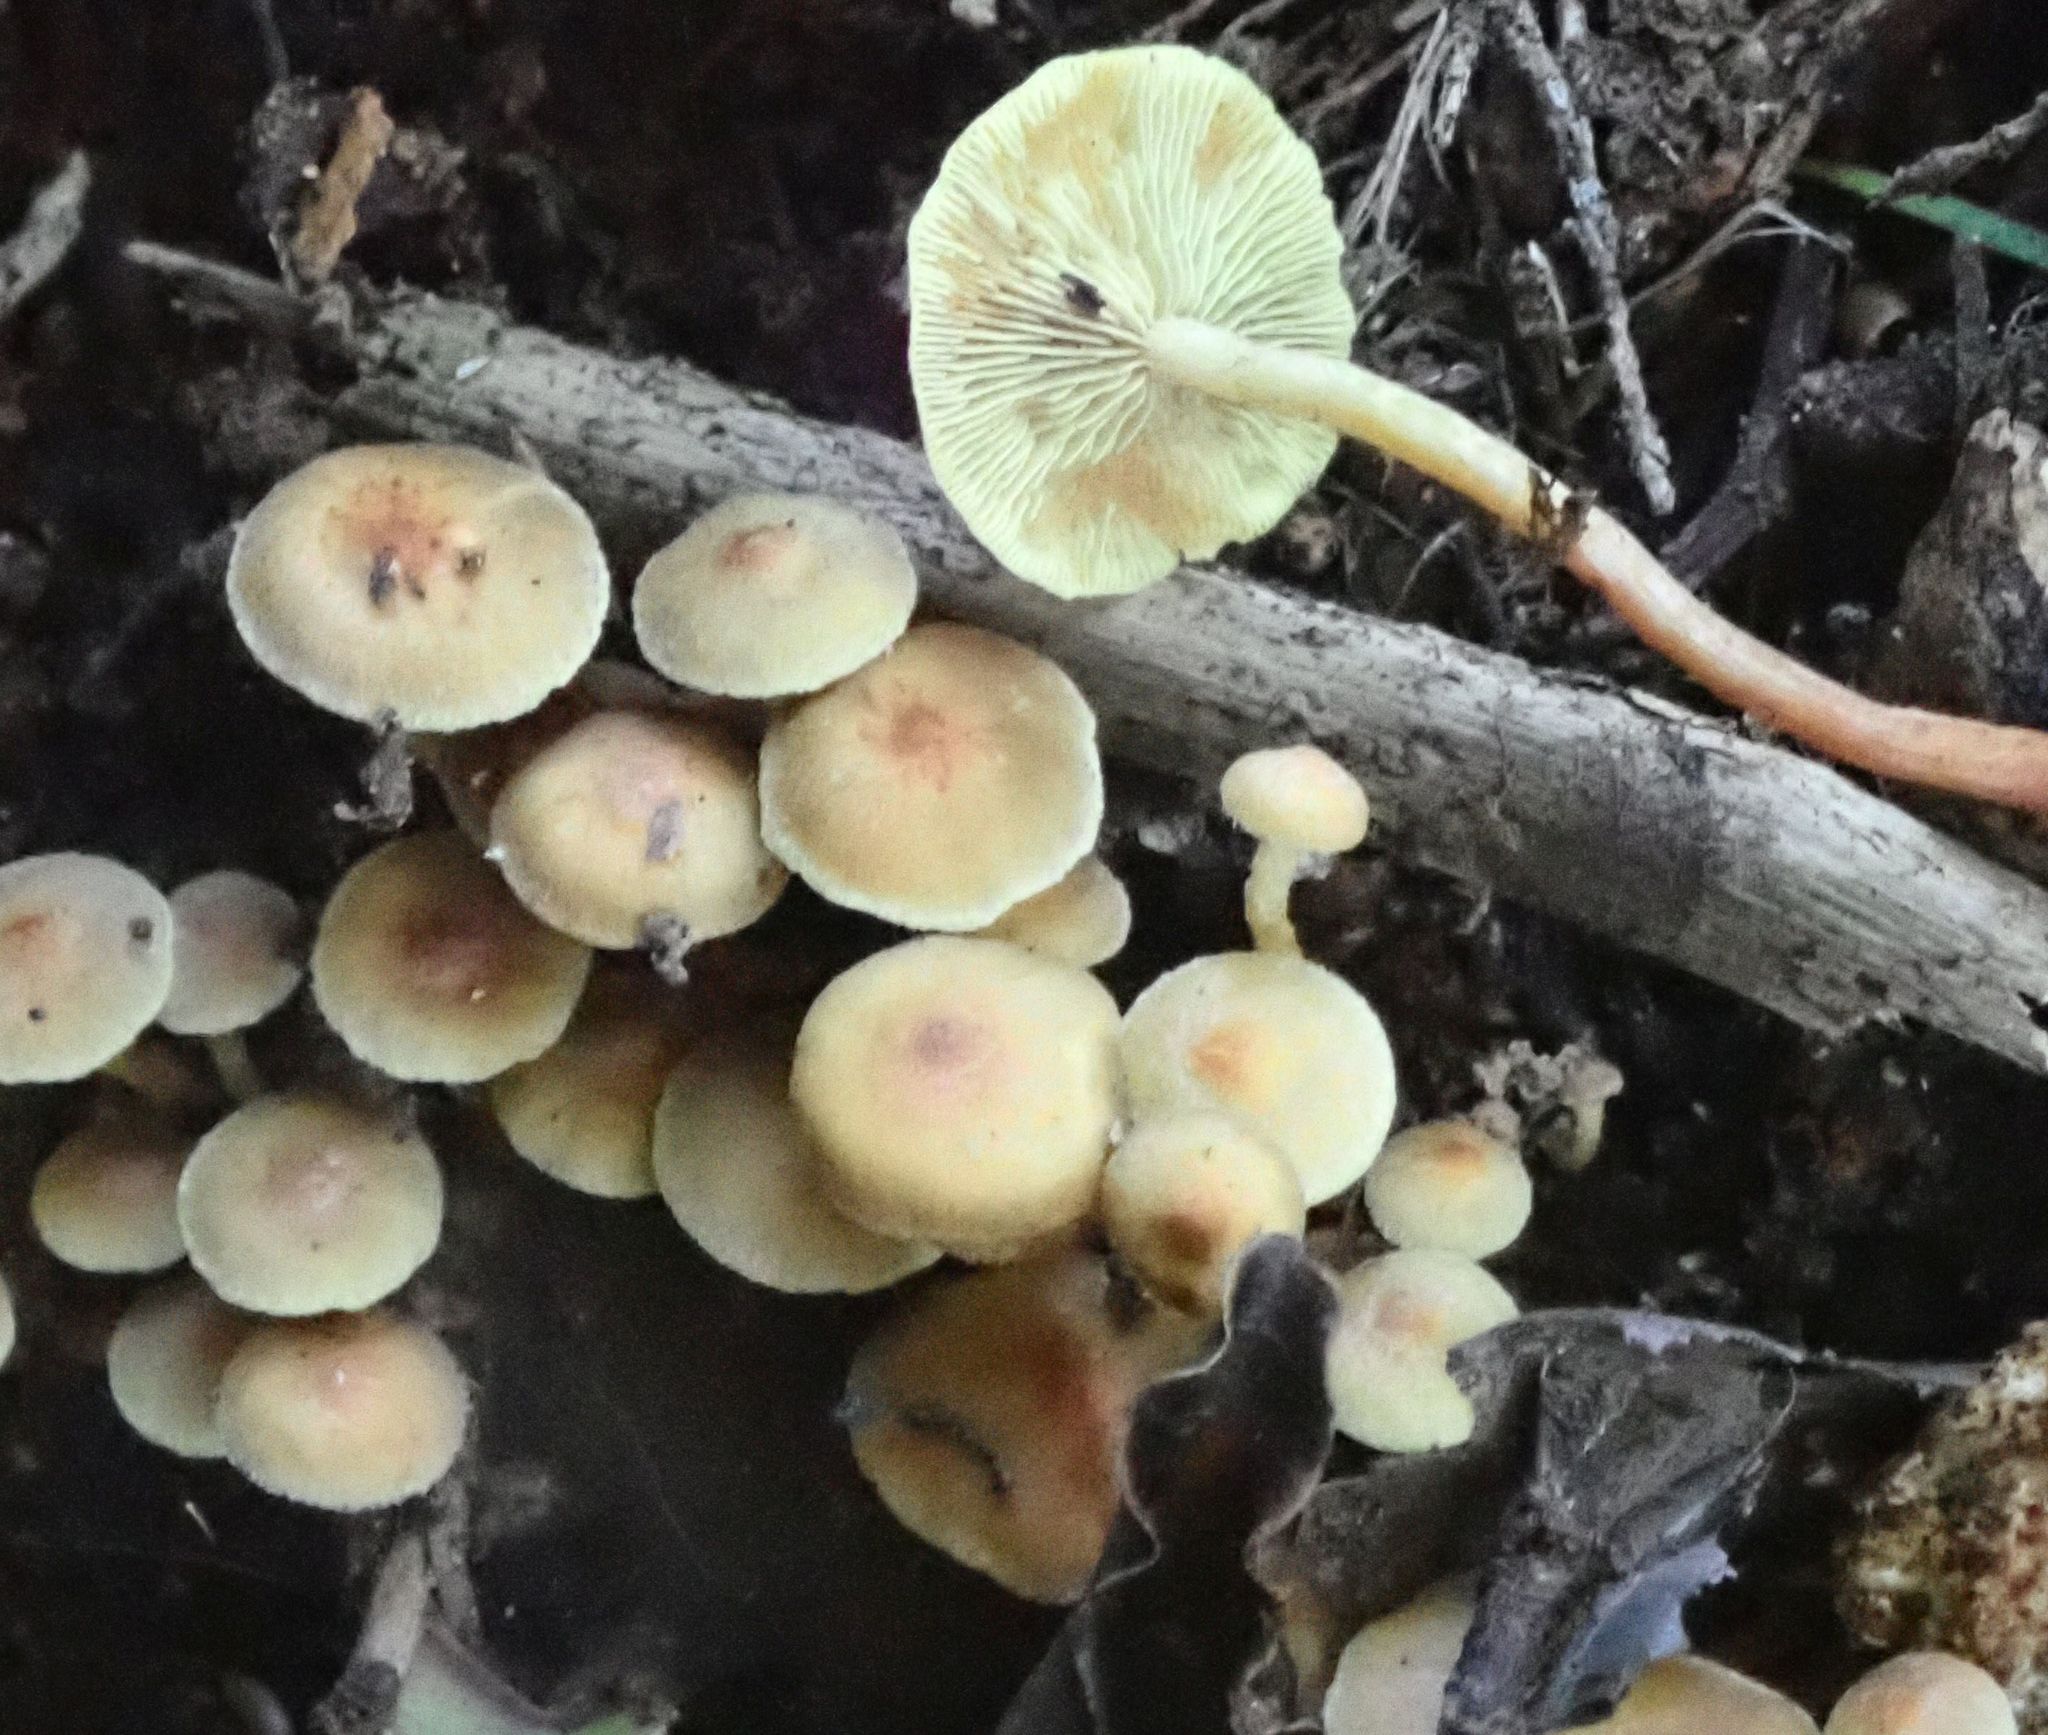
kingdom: Fungi
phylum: Basidiomycota
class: Agaricomycetes
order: Agaricales
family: Strophariaceae
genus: Hypholoma
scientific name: Hypholoma acutum
